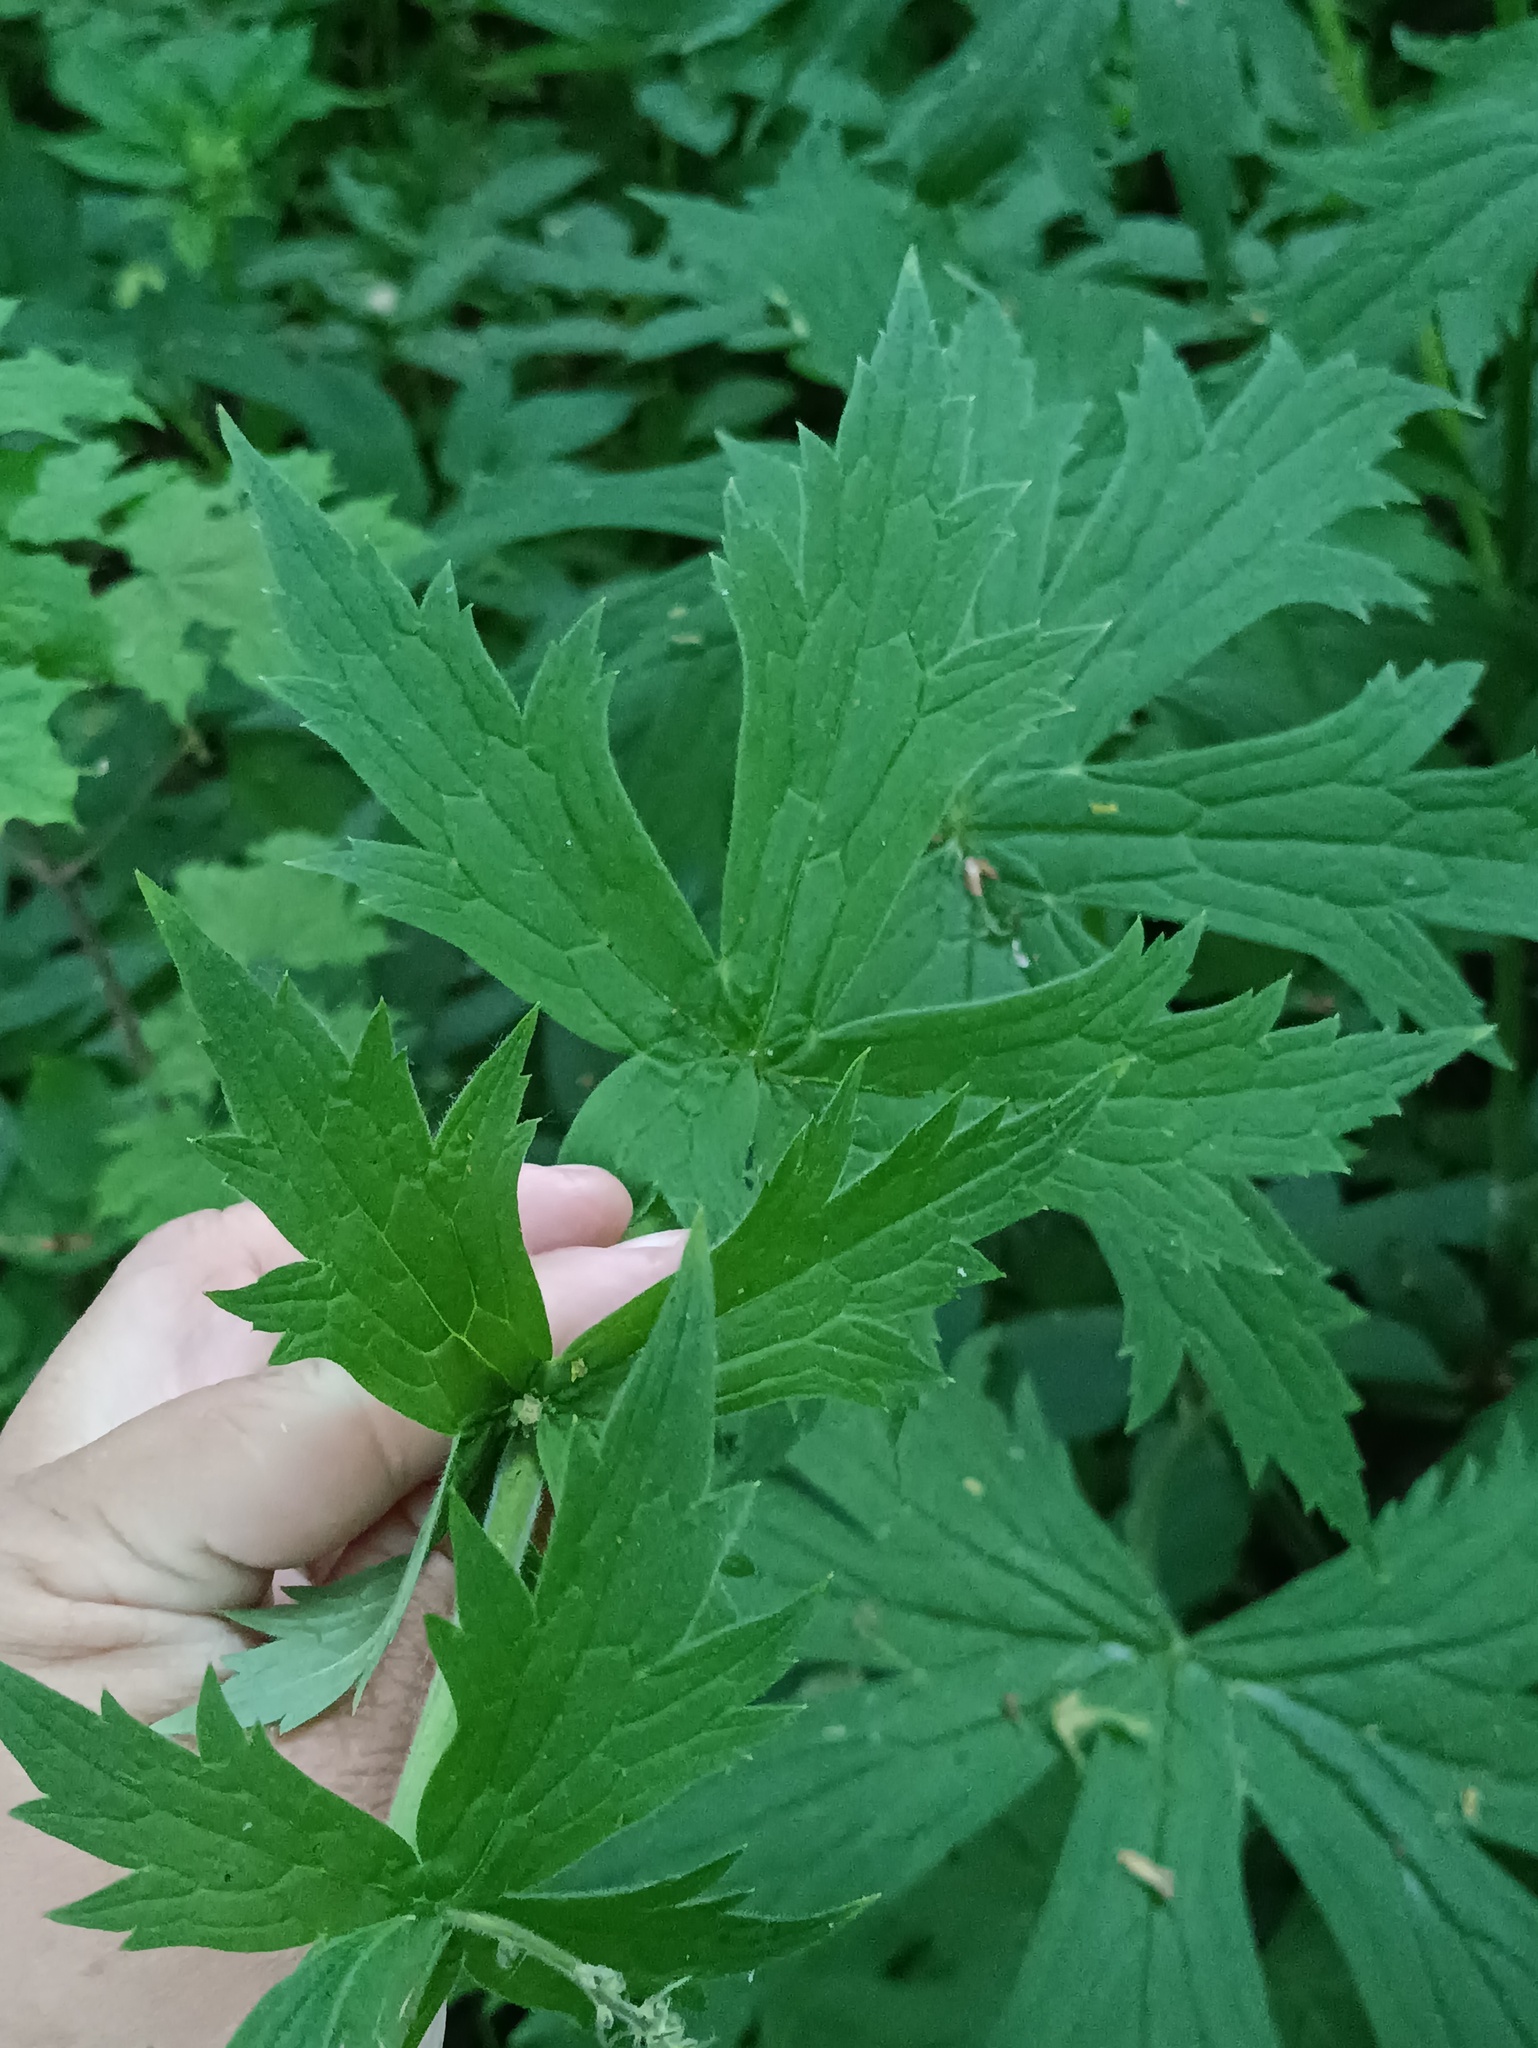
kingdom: Plantae
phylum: Tracheophyta
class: Magnoliopsida
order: Ranunculales
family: Ranunculaceae
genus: Aconitum
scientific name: Aconitum septentrionale
